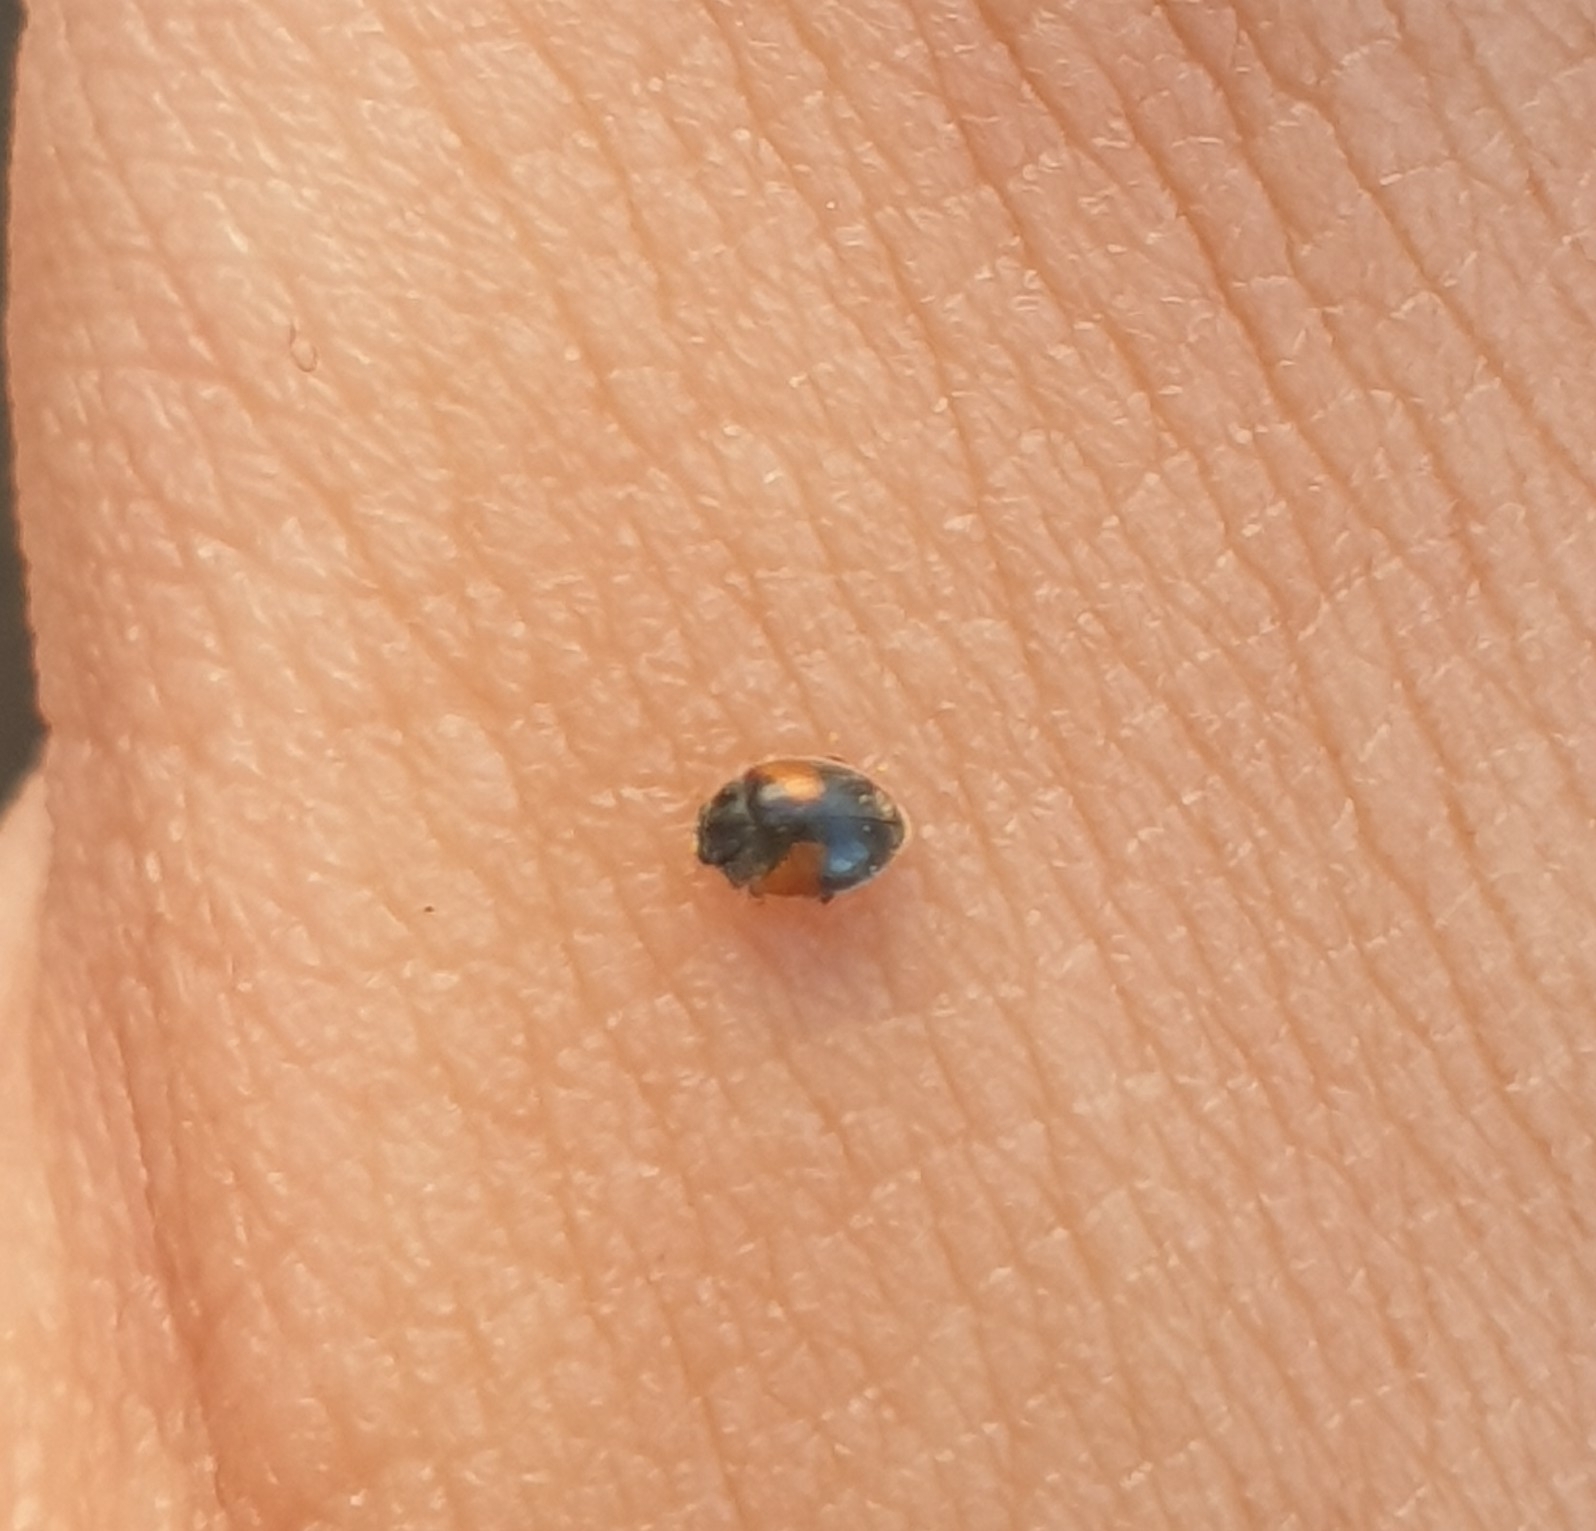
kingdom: Animalia
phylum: Arthropoda
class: Insecta
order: Coleoptera
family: Coccinellidae
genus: Scymnus
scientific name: Scymnus interruptus
